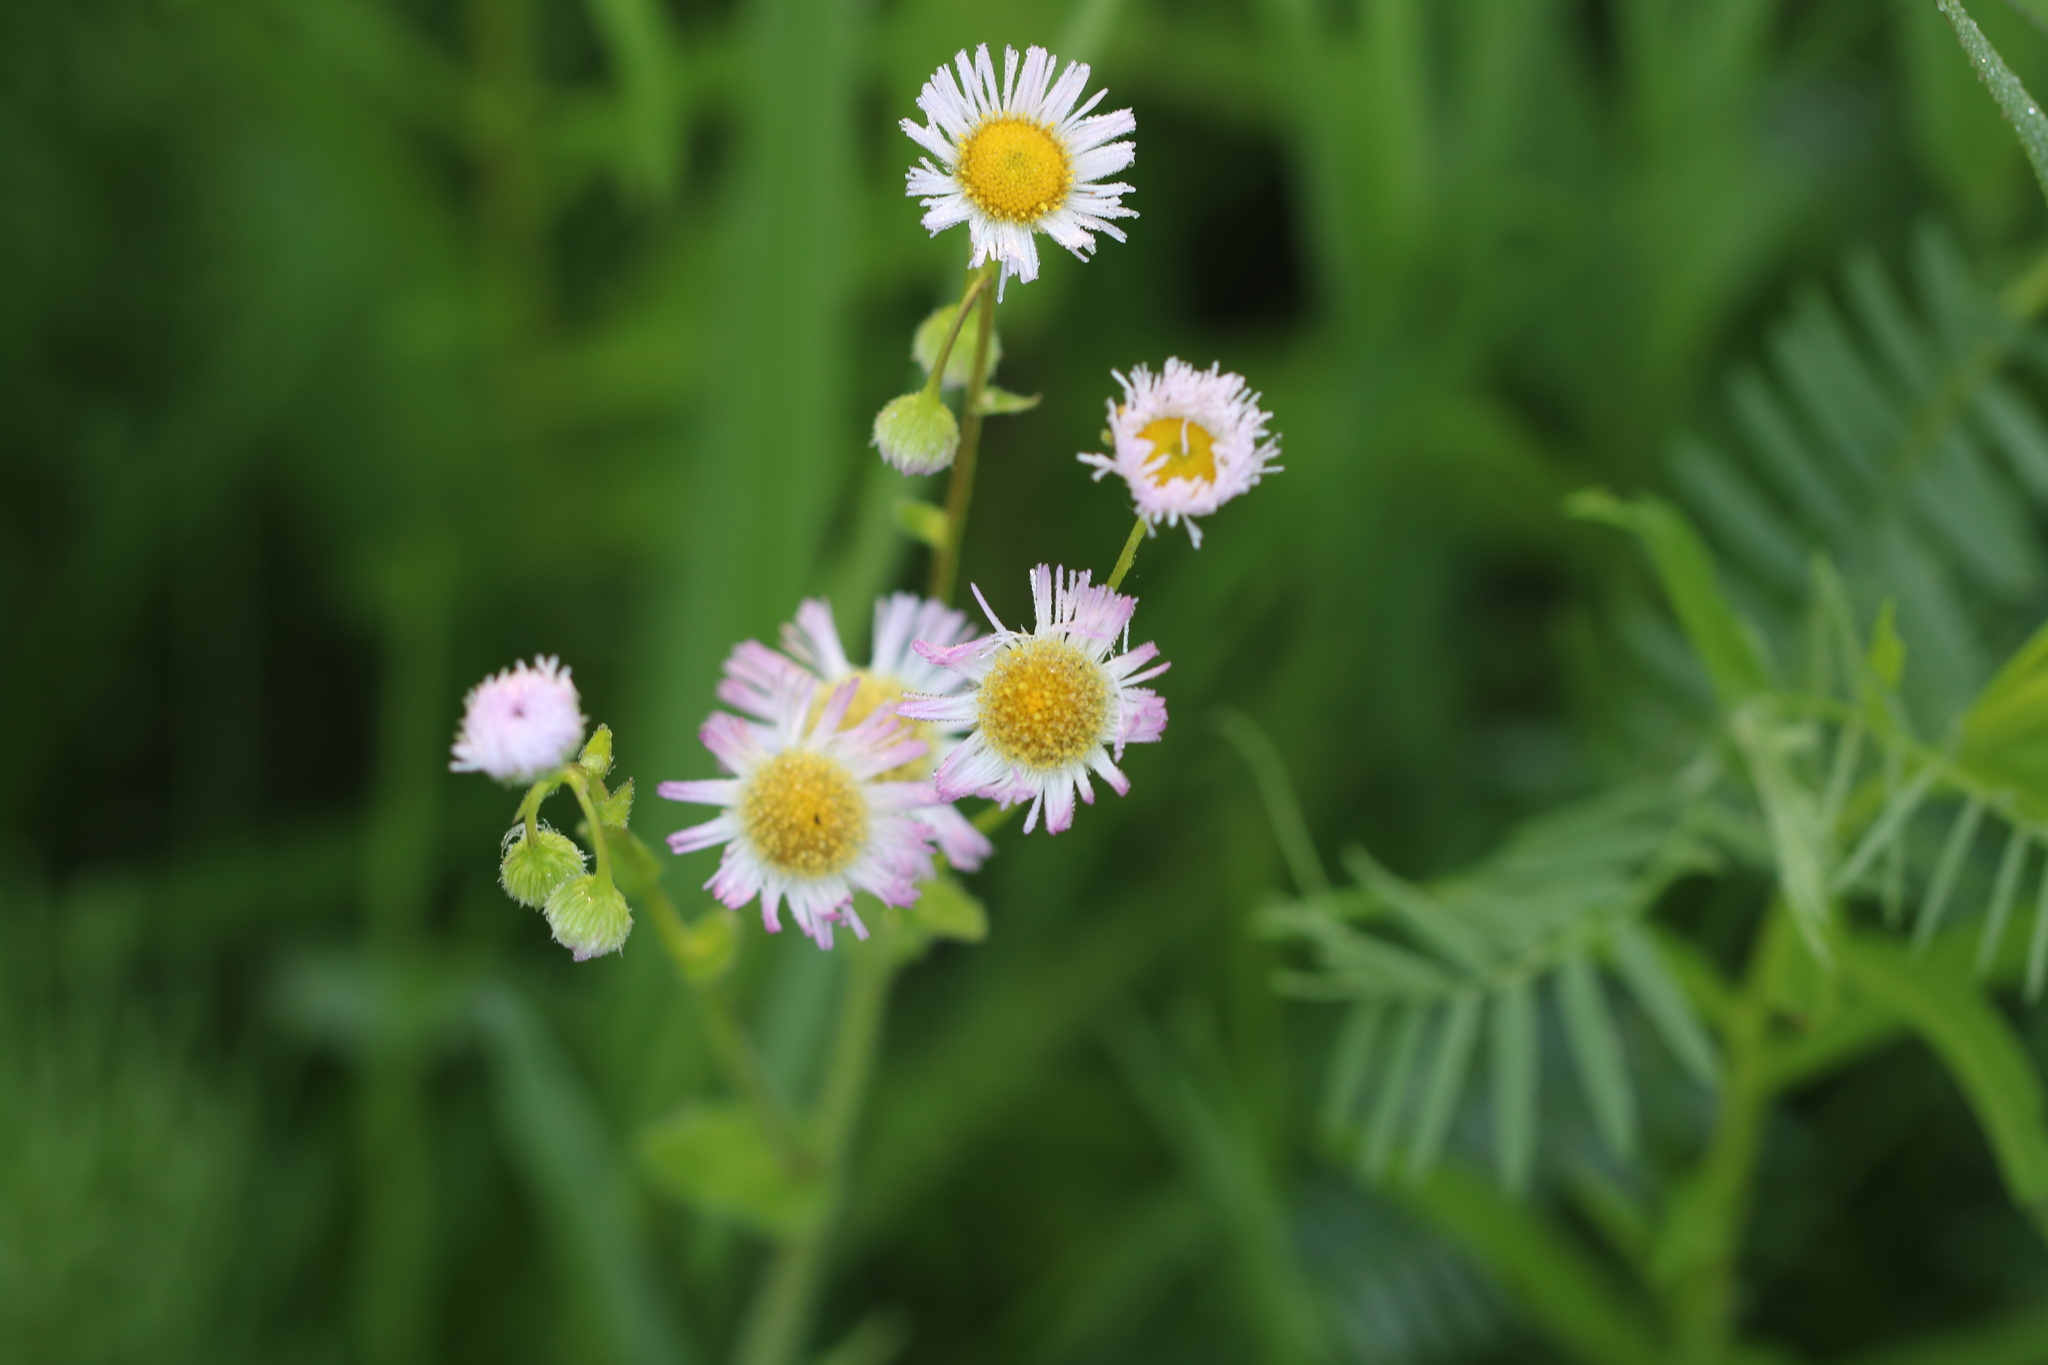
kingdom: Plantae
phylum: Tracheophyta
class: Magnoliopsida
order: Asterales
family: Asteraceae
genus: Erigeron
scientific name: Erigeron philadelphicus
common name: Robin's-plantain
